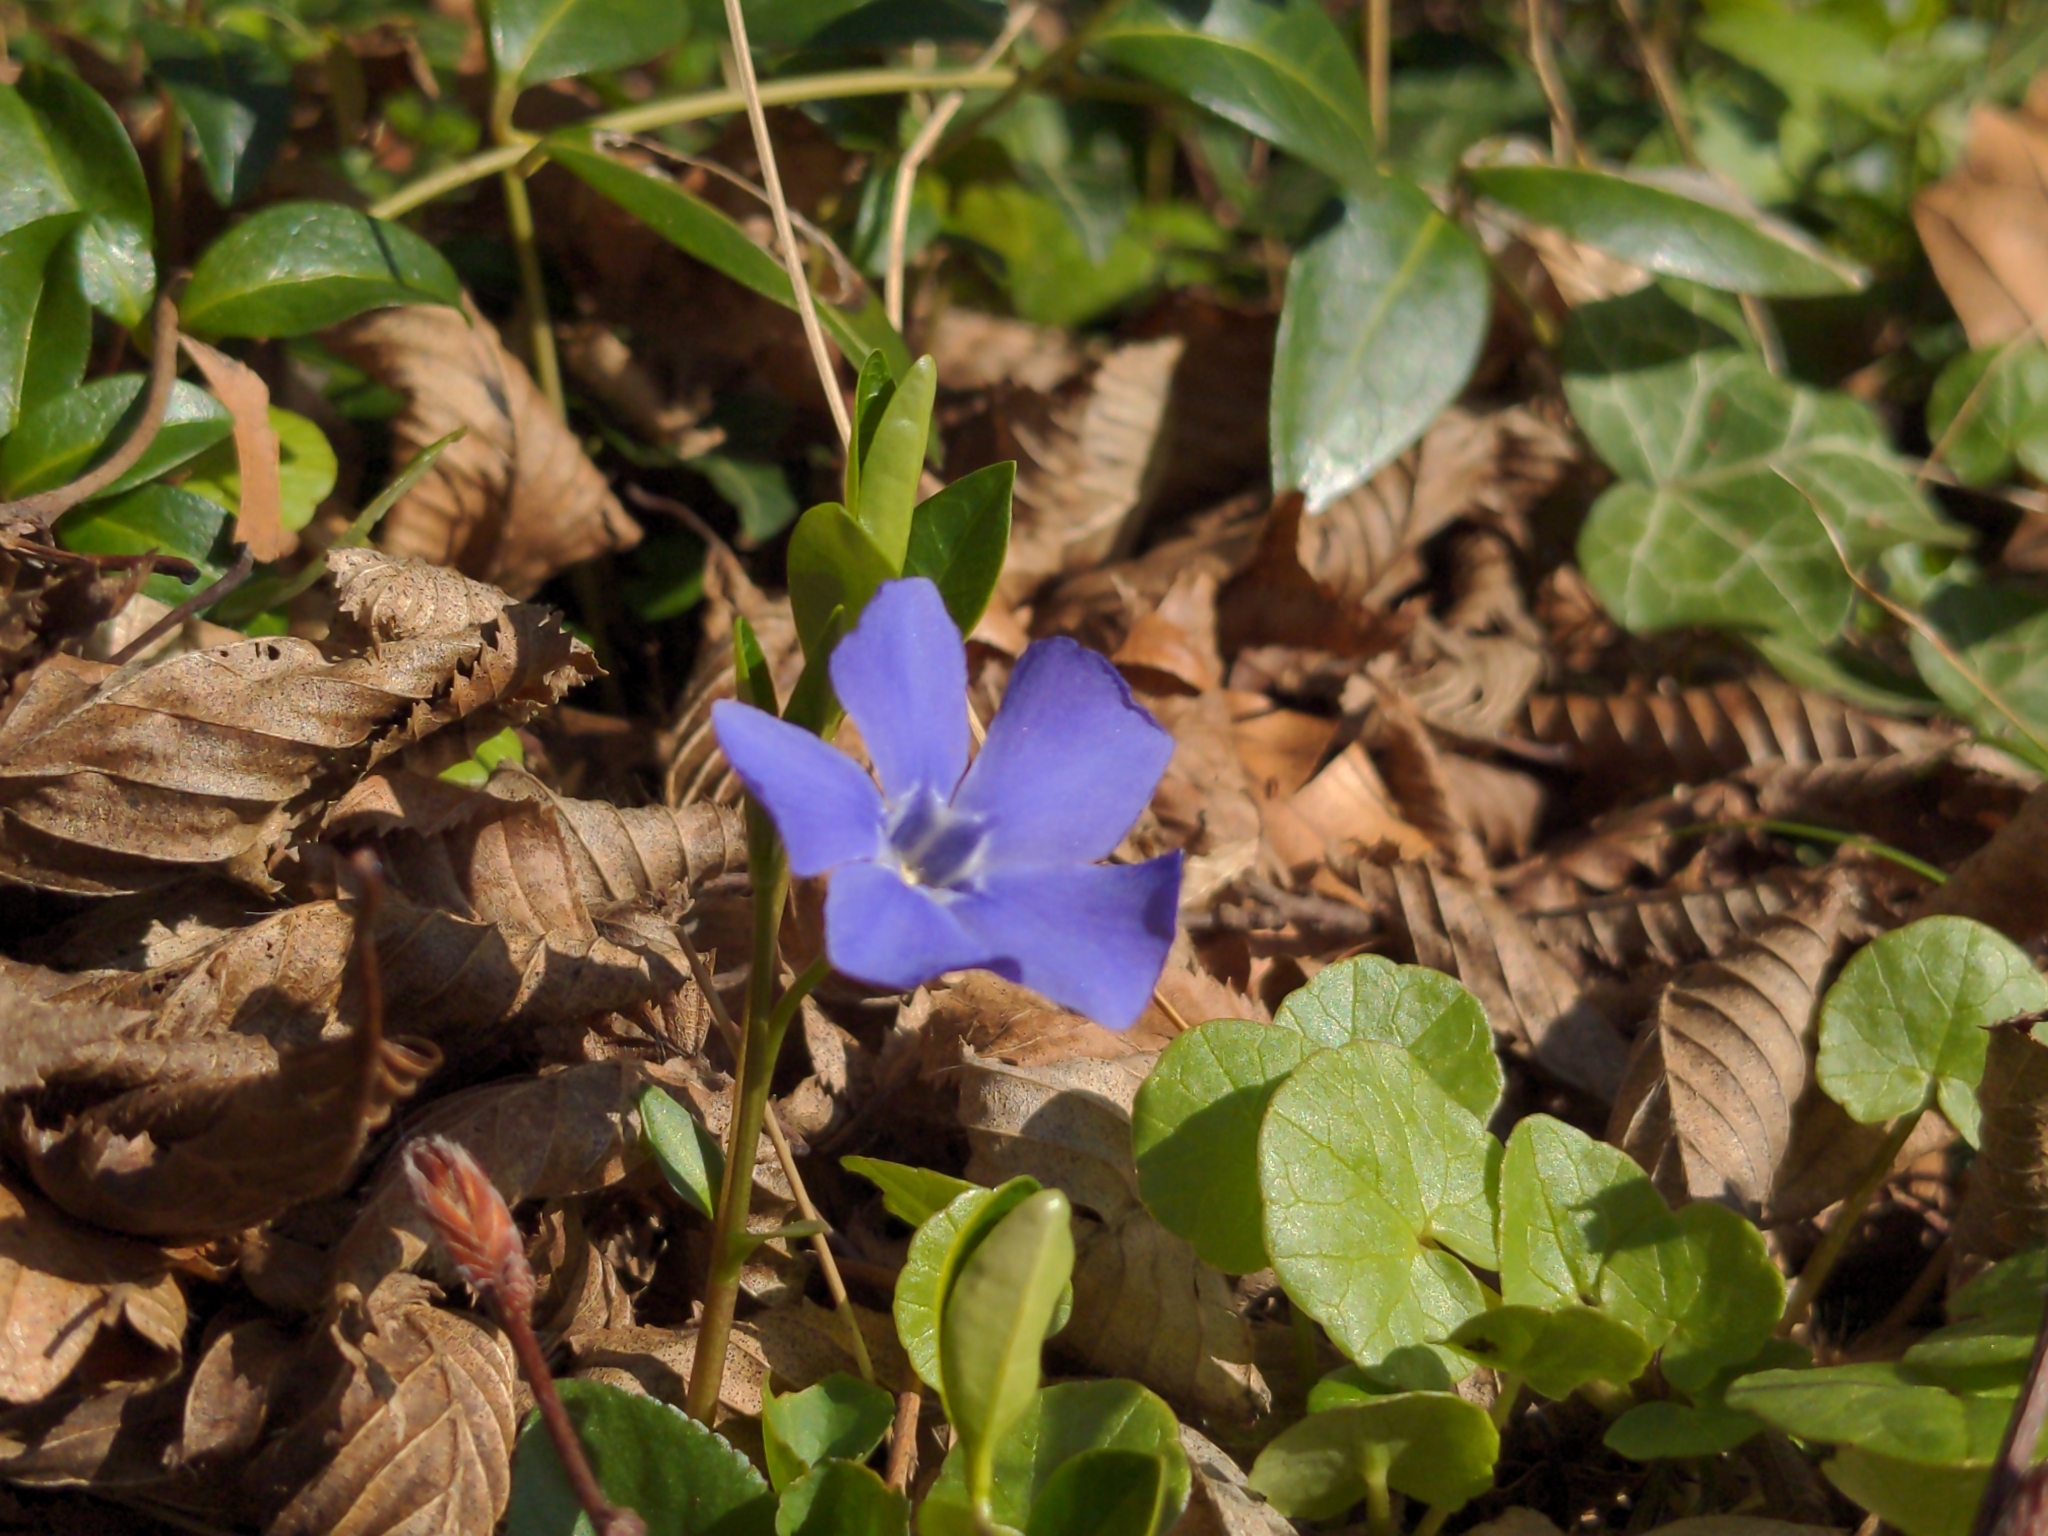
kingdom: Plantae
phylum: Tracheophyta
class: Magnoliopsida
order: Gentianales
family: Apocynaceae
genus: Vinca
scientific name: Vinca minor
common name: Lesser periwinkle
